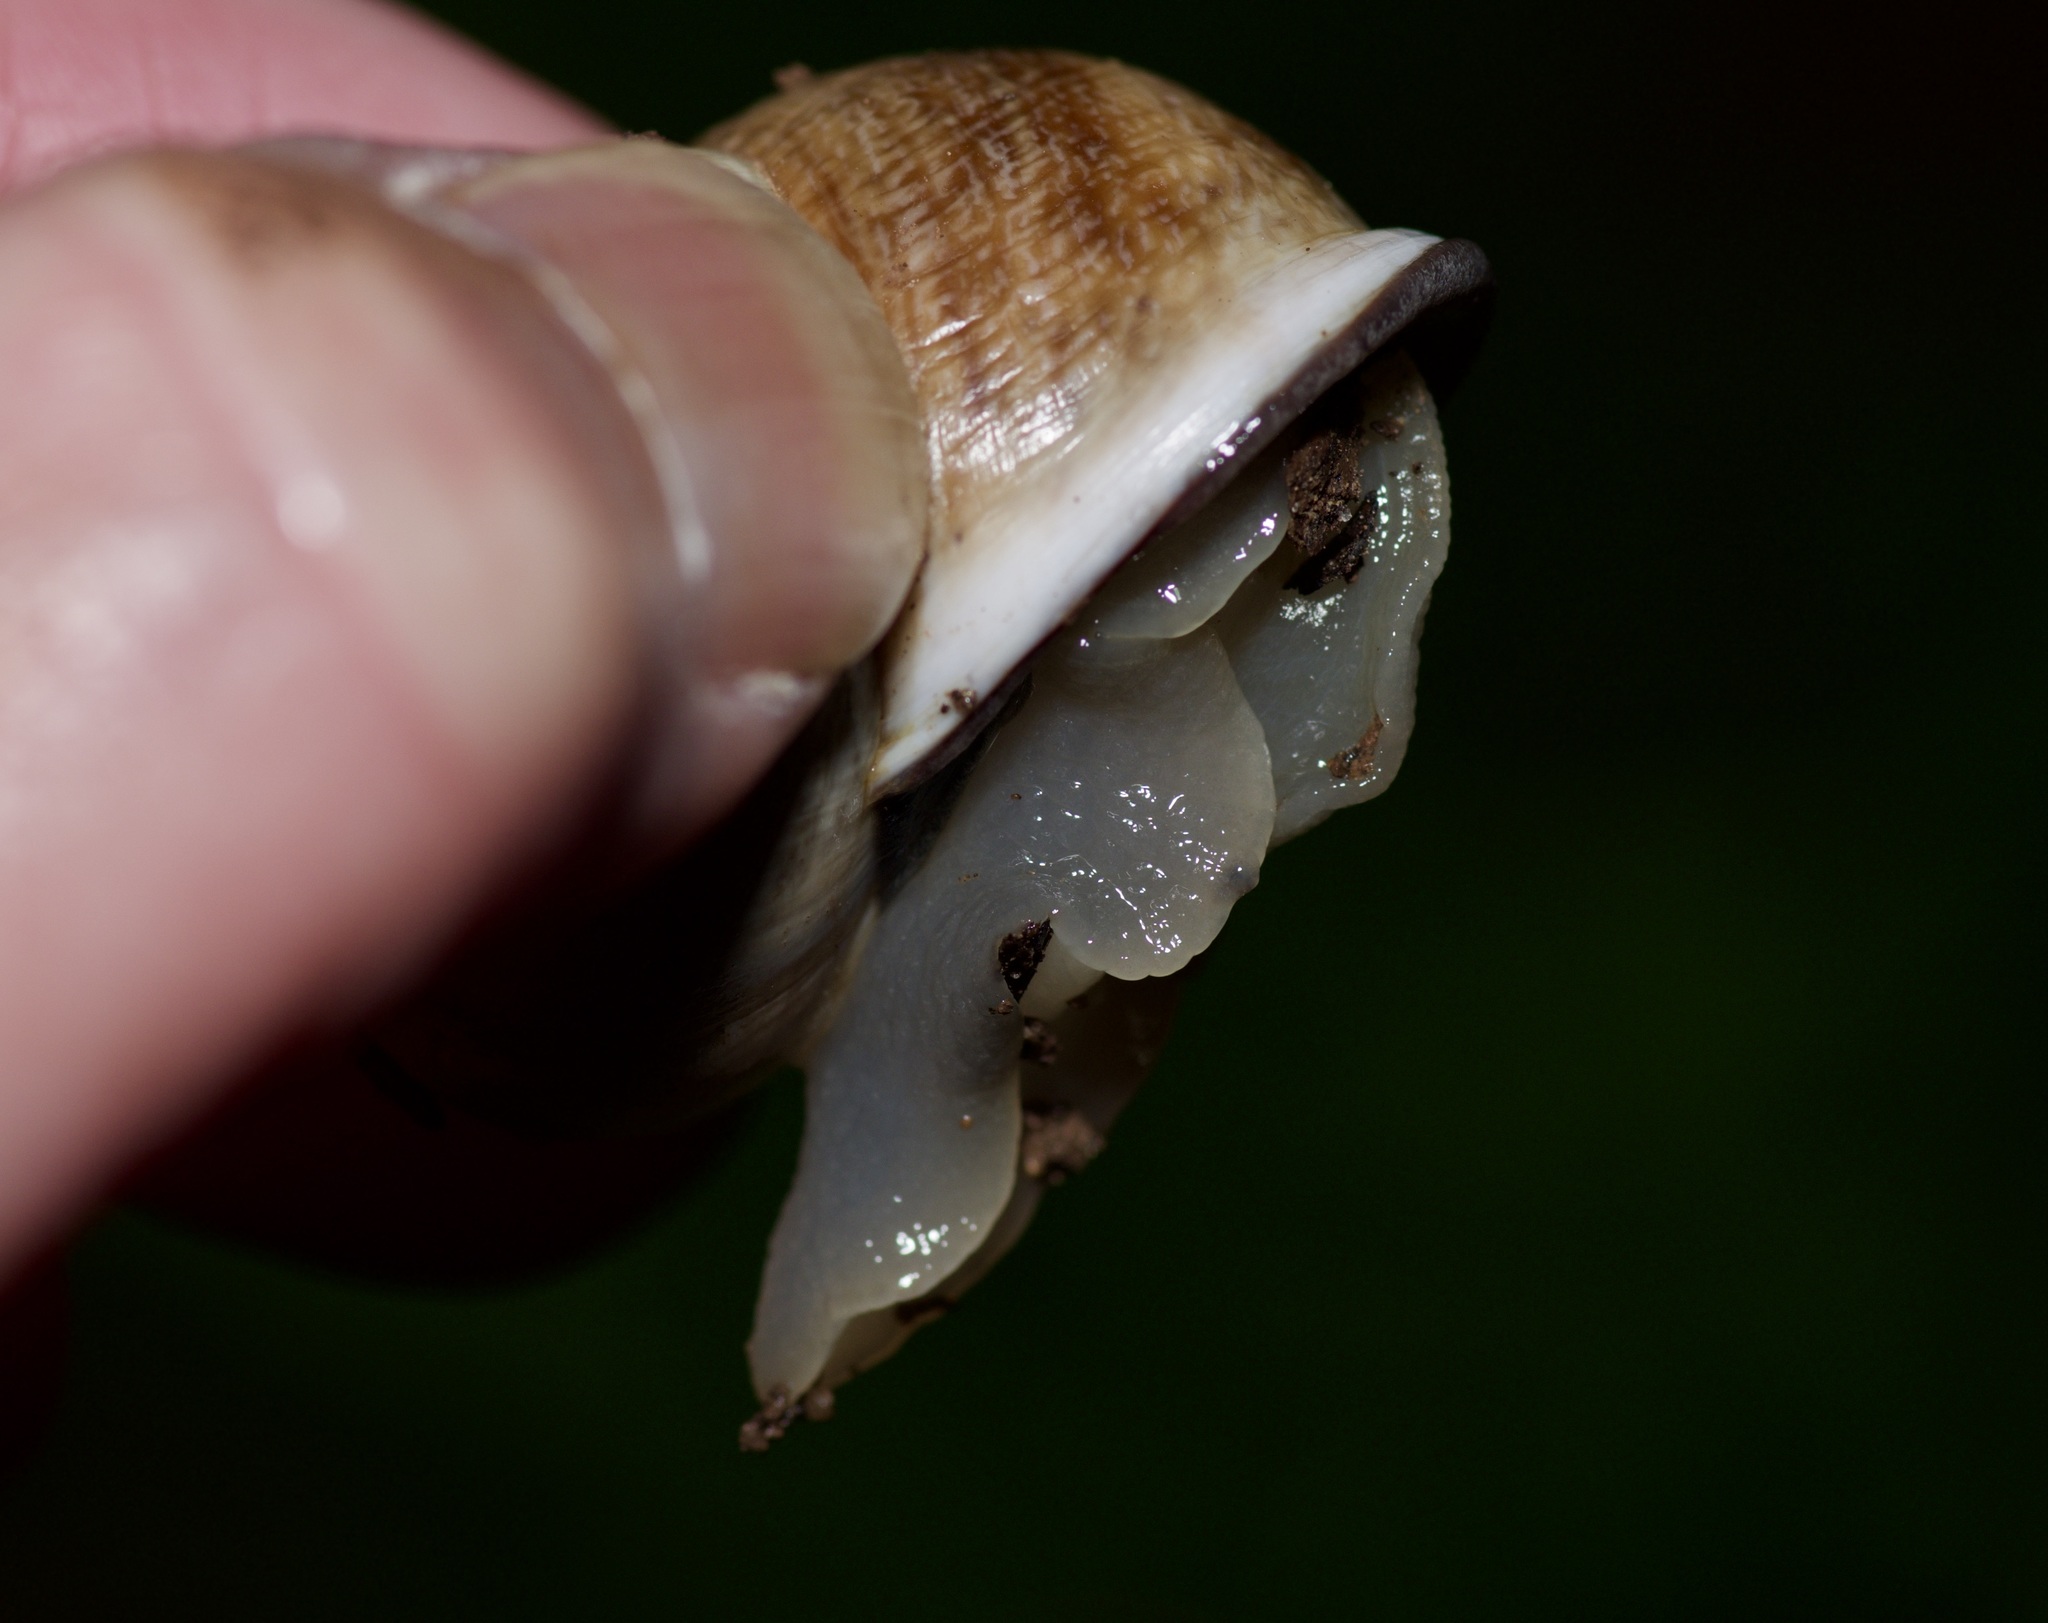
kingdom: Animalia
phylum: Mollusca
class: Gastropoda
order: Stylommatophora
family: Helicidae
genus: Otala
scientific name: Otala lactea
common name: Milk snail
